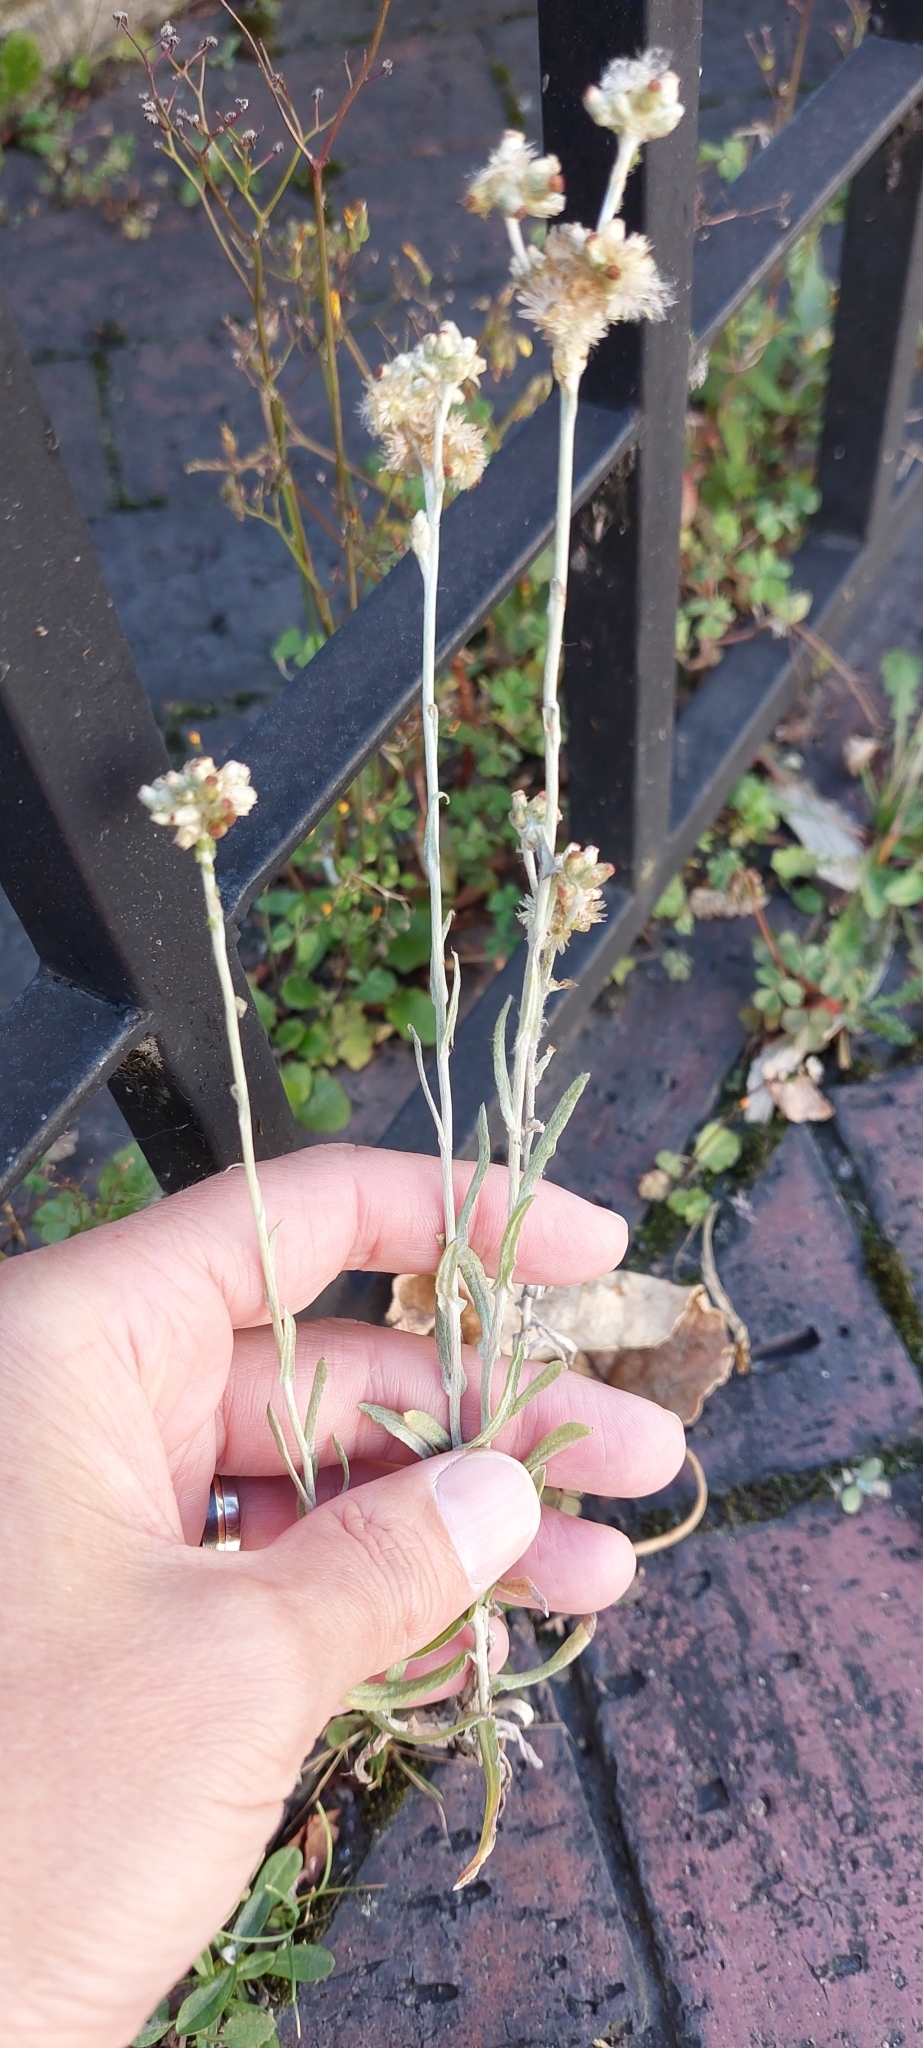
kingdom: Plantae
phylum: Tracheophyta
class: Magnoliopsida
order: Asterales
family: Asteraceae
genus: Helichrysum
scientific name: Helichrysum luteoalbum
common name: Daisy
